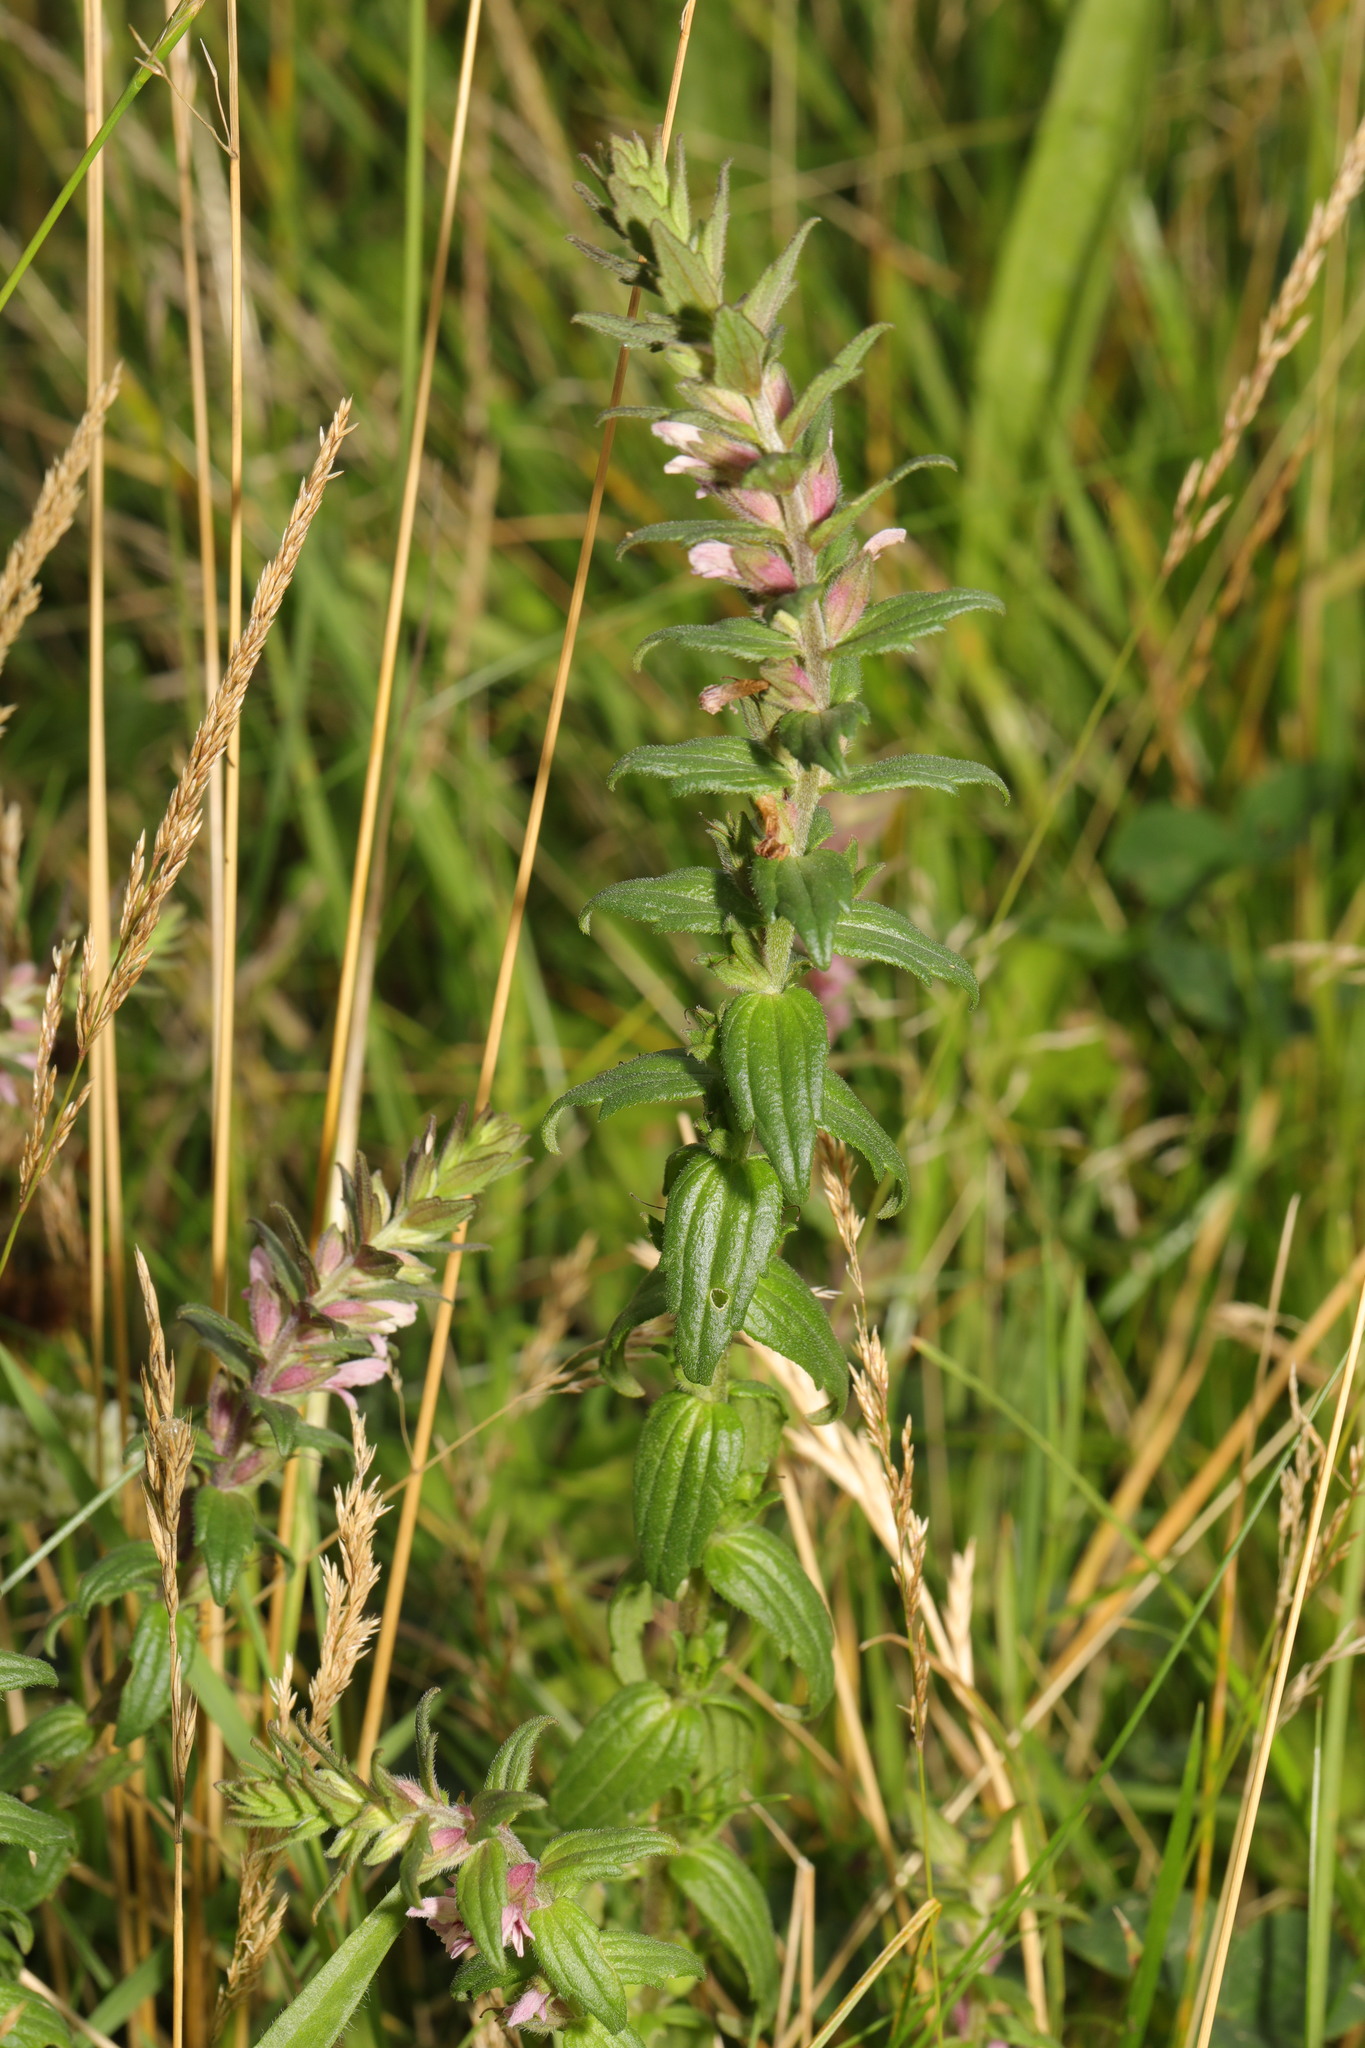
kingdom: Plantae
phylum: Tracheophyta
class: Magnoliopsida
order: Lamiales
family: Orobanchaceae
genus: Odontites
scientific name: Odontites vulgaris
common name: Broomrape
